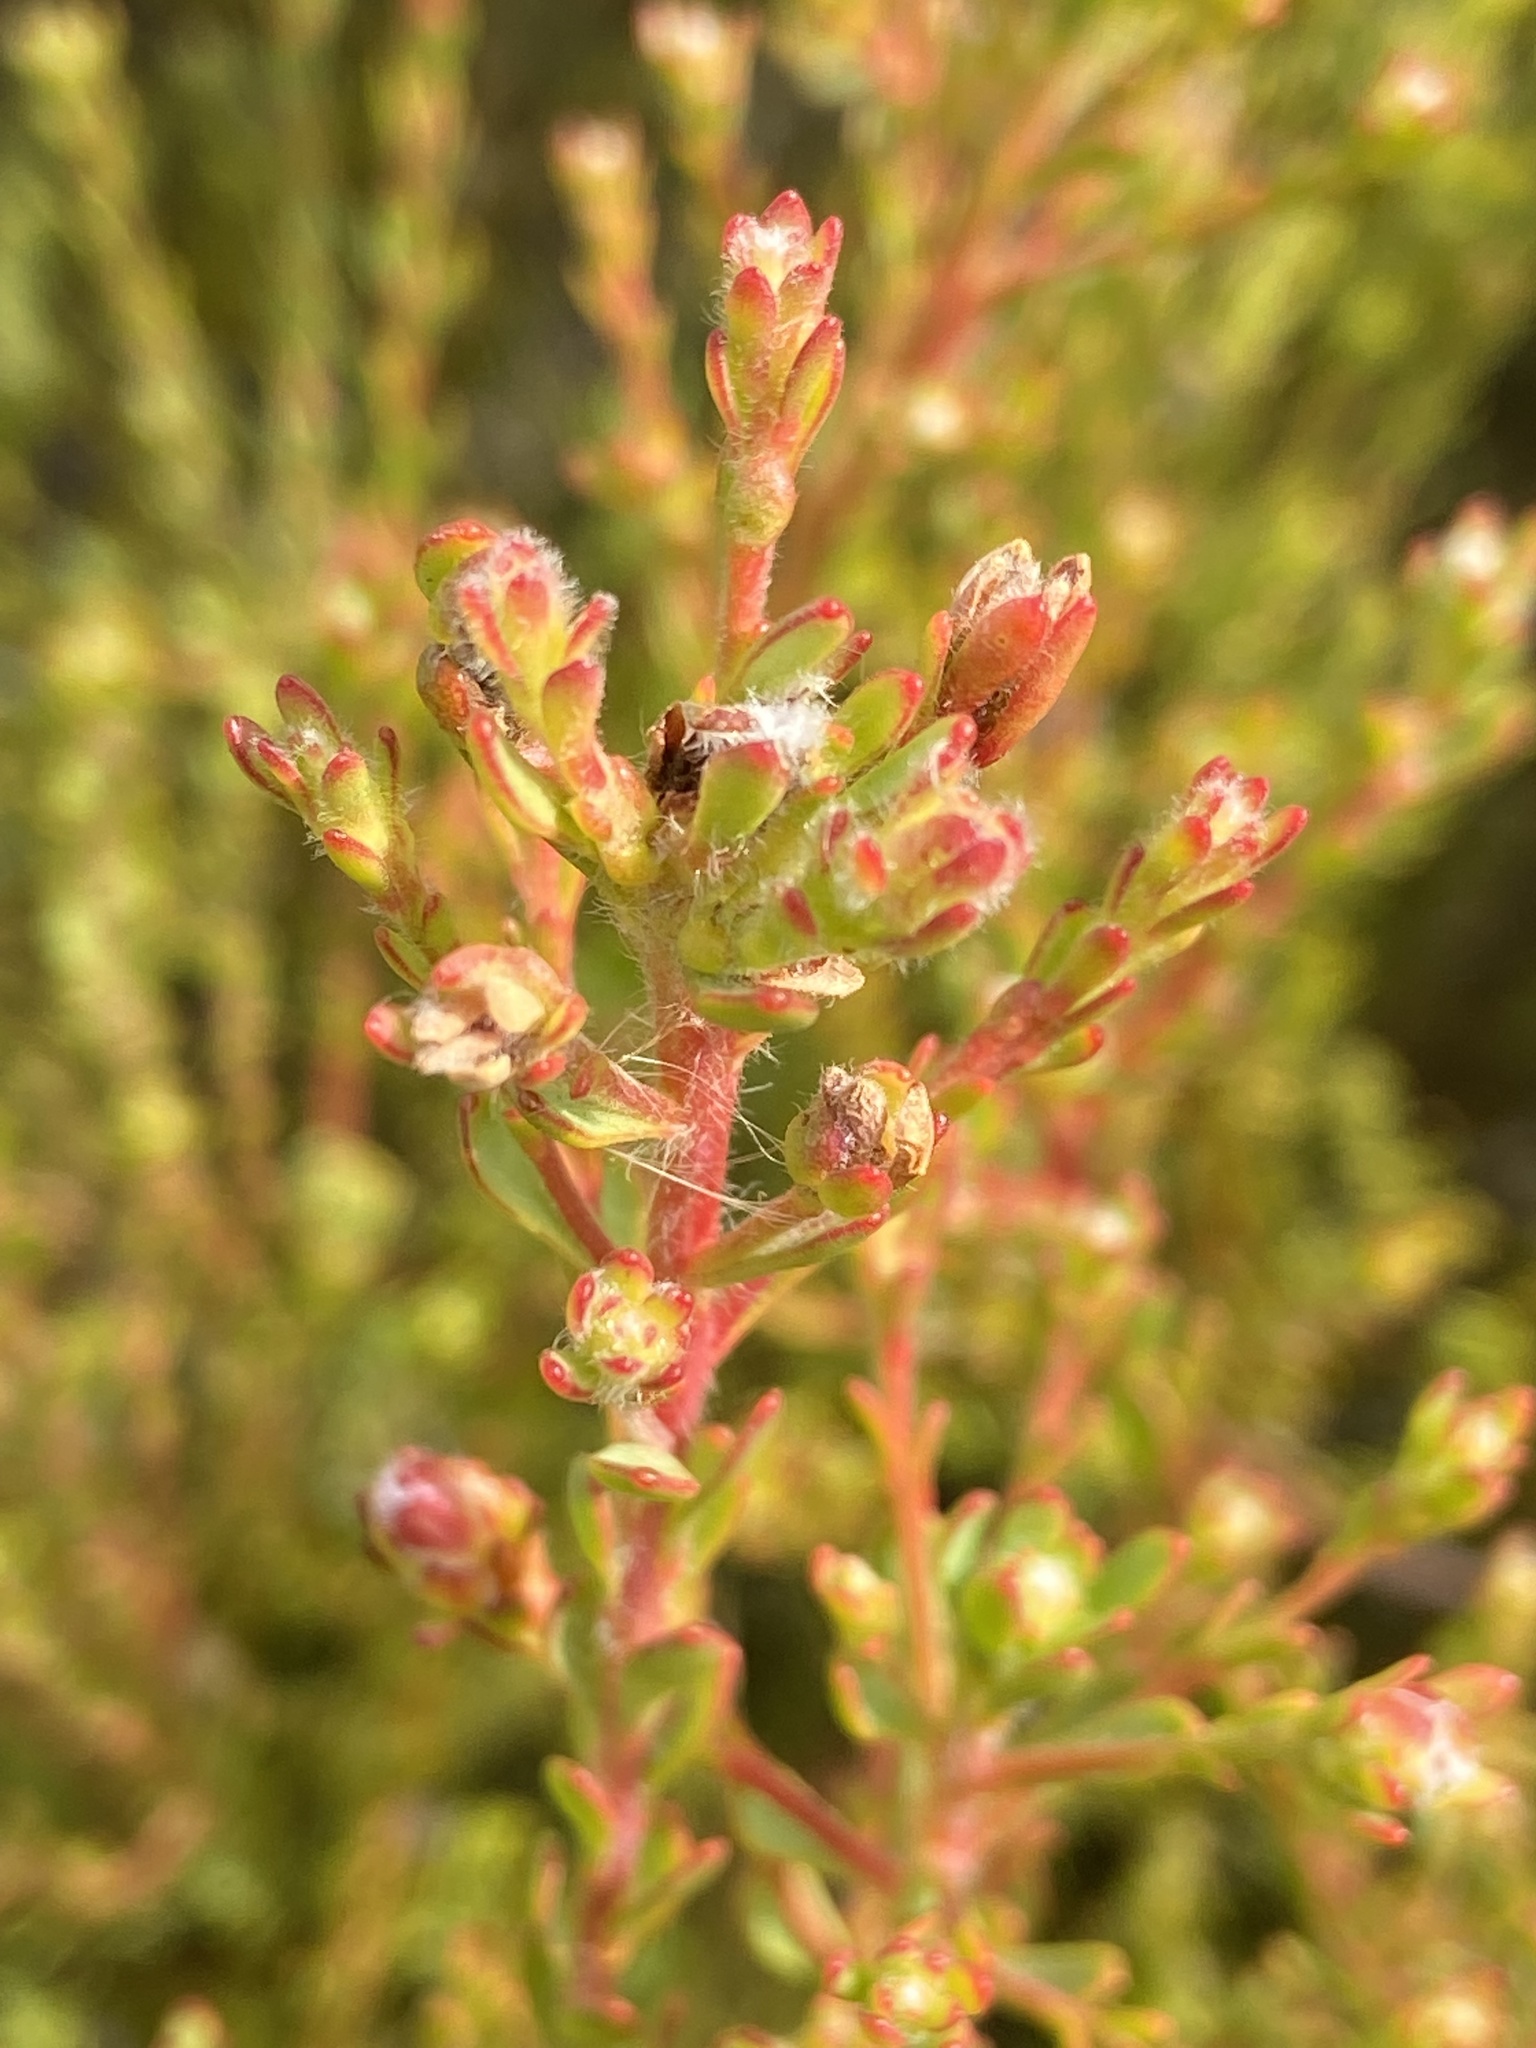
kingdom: Plantae
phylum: Tracheophyta
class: Magnoliopsida
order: Proteales
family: Proteaceae
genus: Leucadendron
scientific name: Leucadendron levisanus
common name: Cape flats conebush
